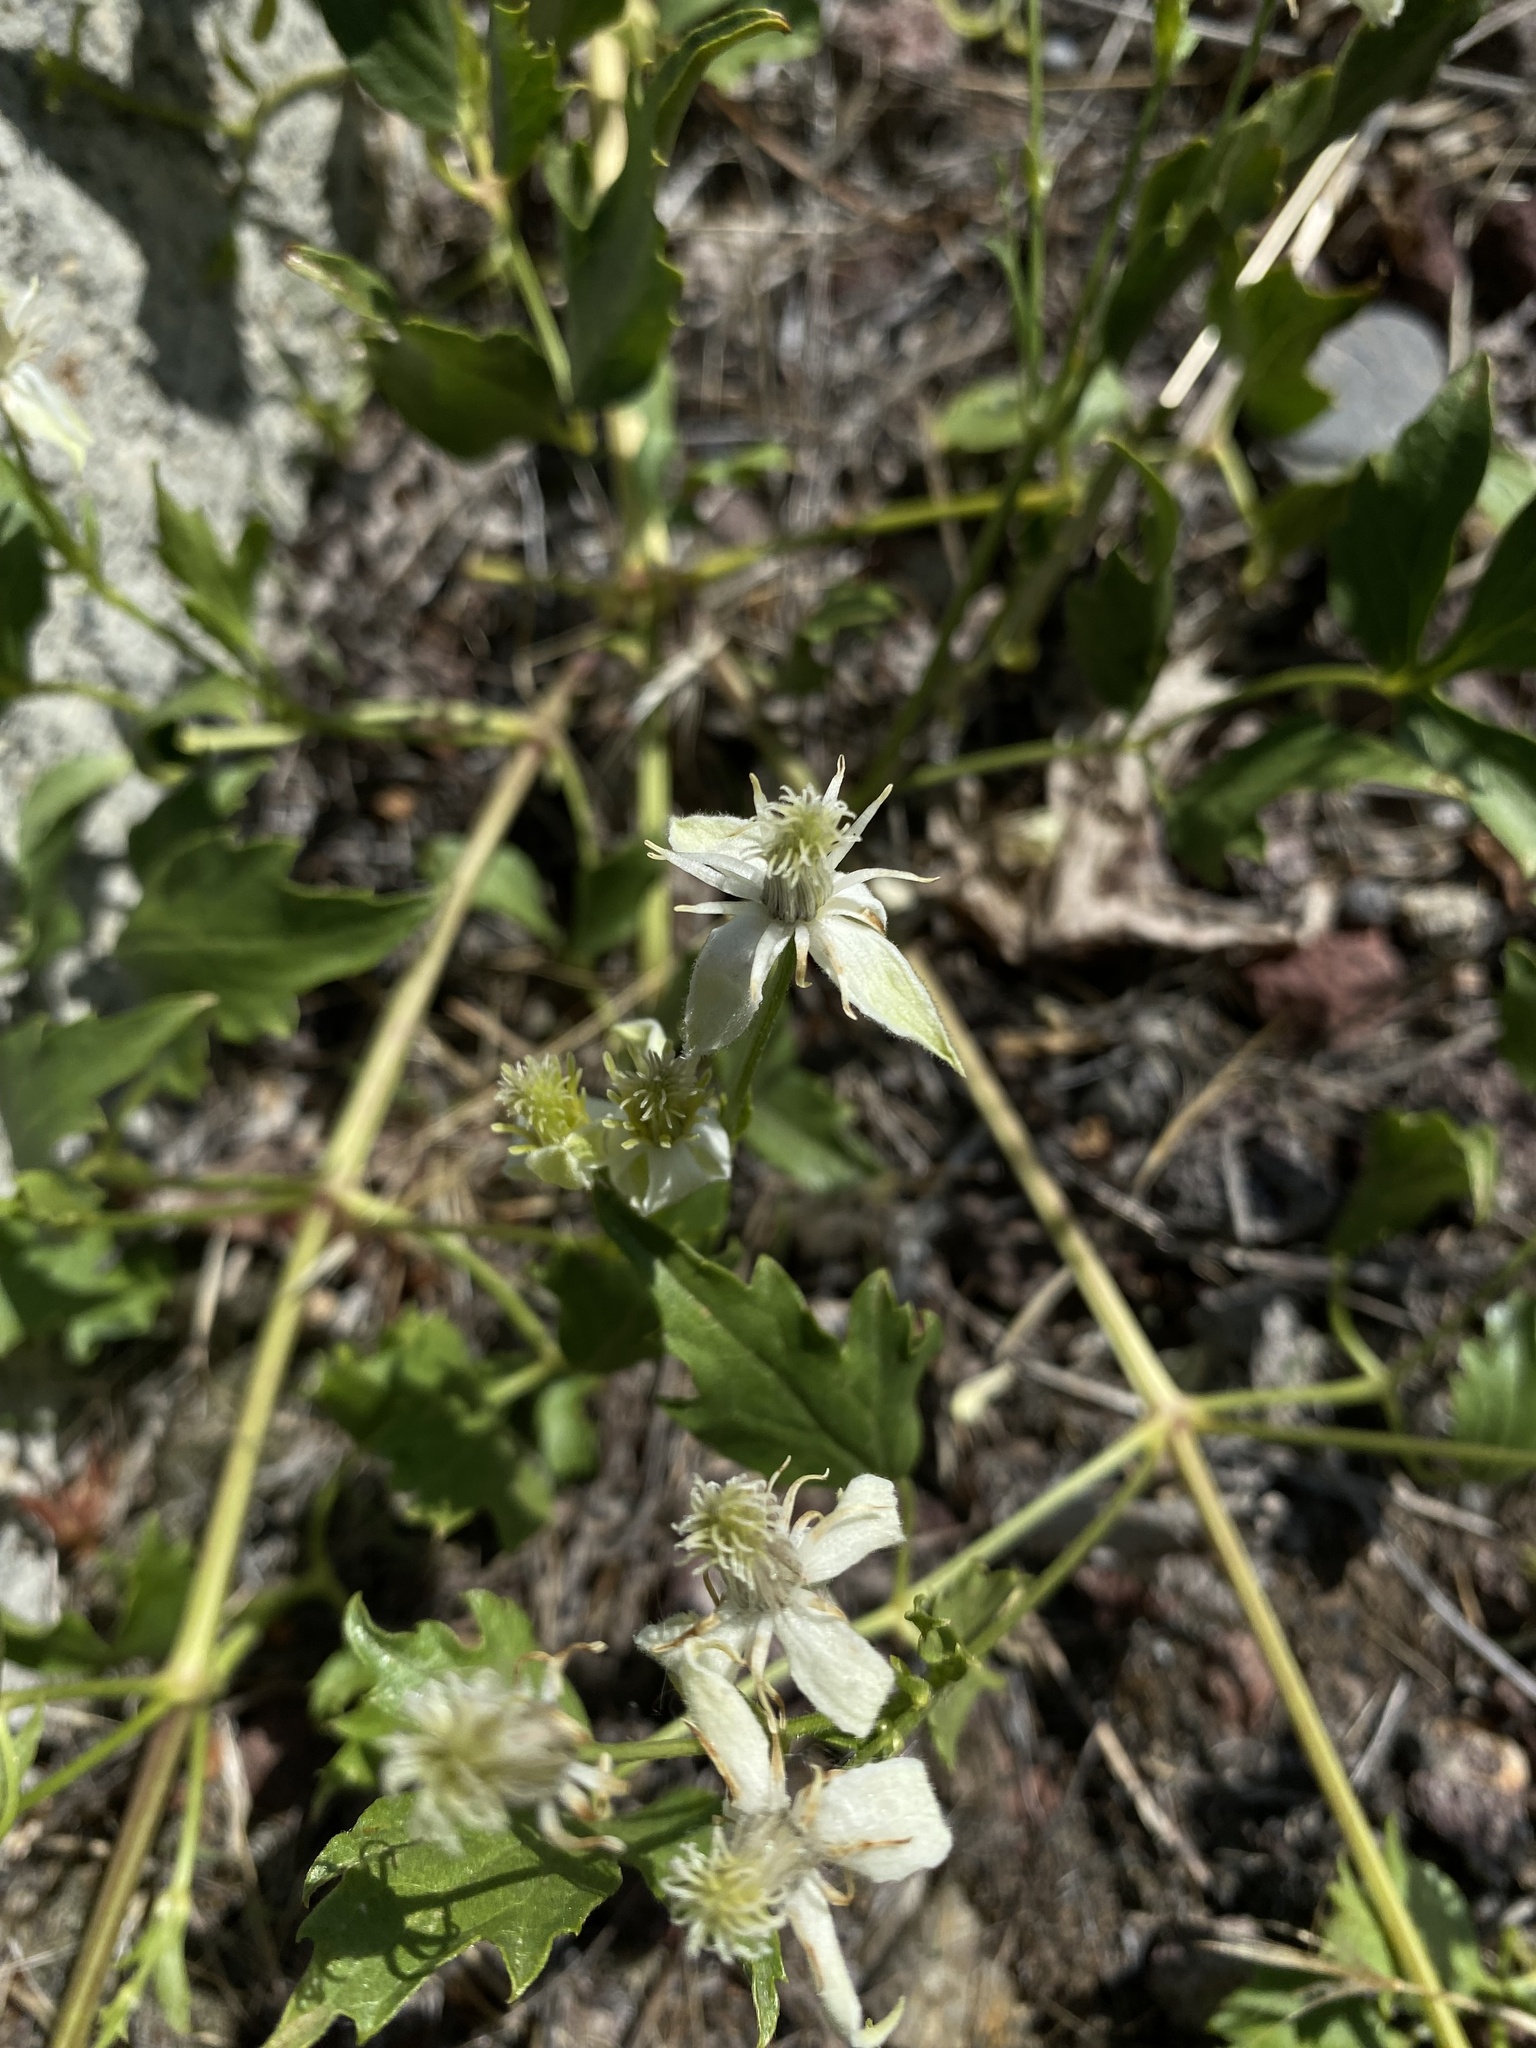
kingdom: Plantae
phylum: Tracheophyta
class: Magnoliopsida
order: Ranunculales
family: Ranunculaceae
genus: Clematis
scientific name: Clematis ligusticifolia
